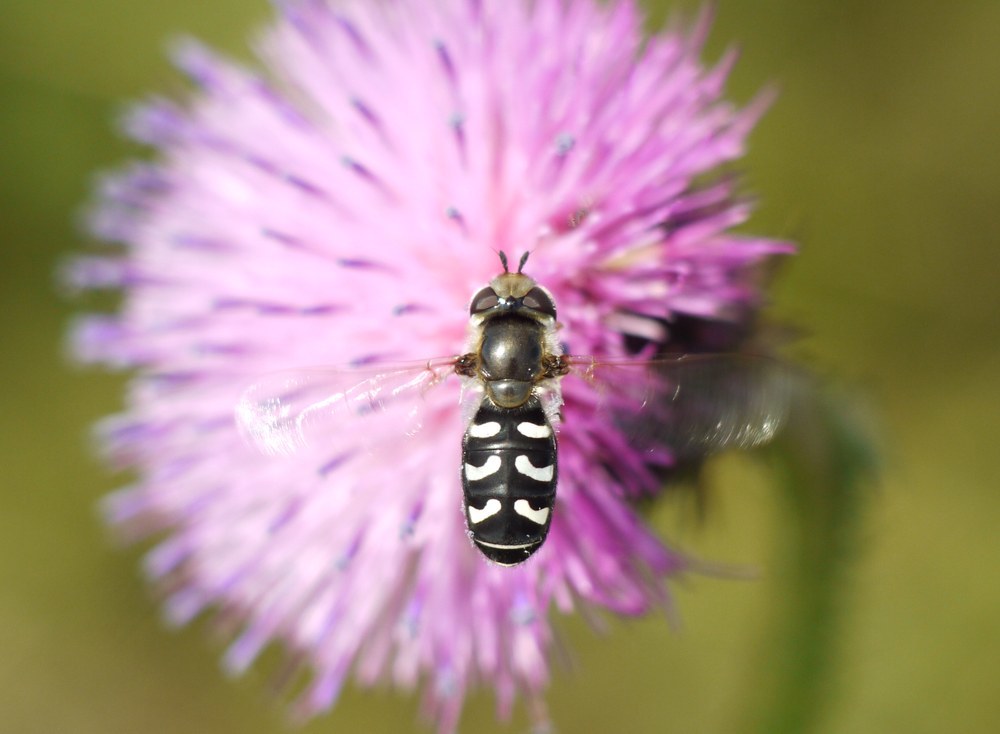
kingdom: Animalia
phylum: Arthropoda
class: Insecta
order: Diptera
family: Syrphidae
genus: Scaeva
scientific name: Scaeva pyrastri
